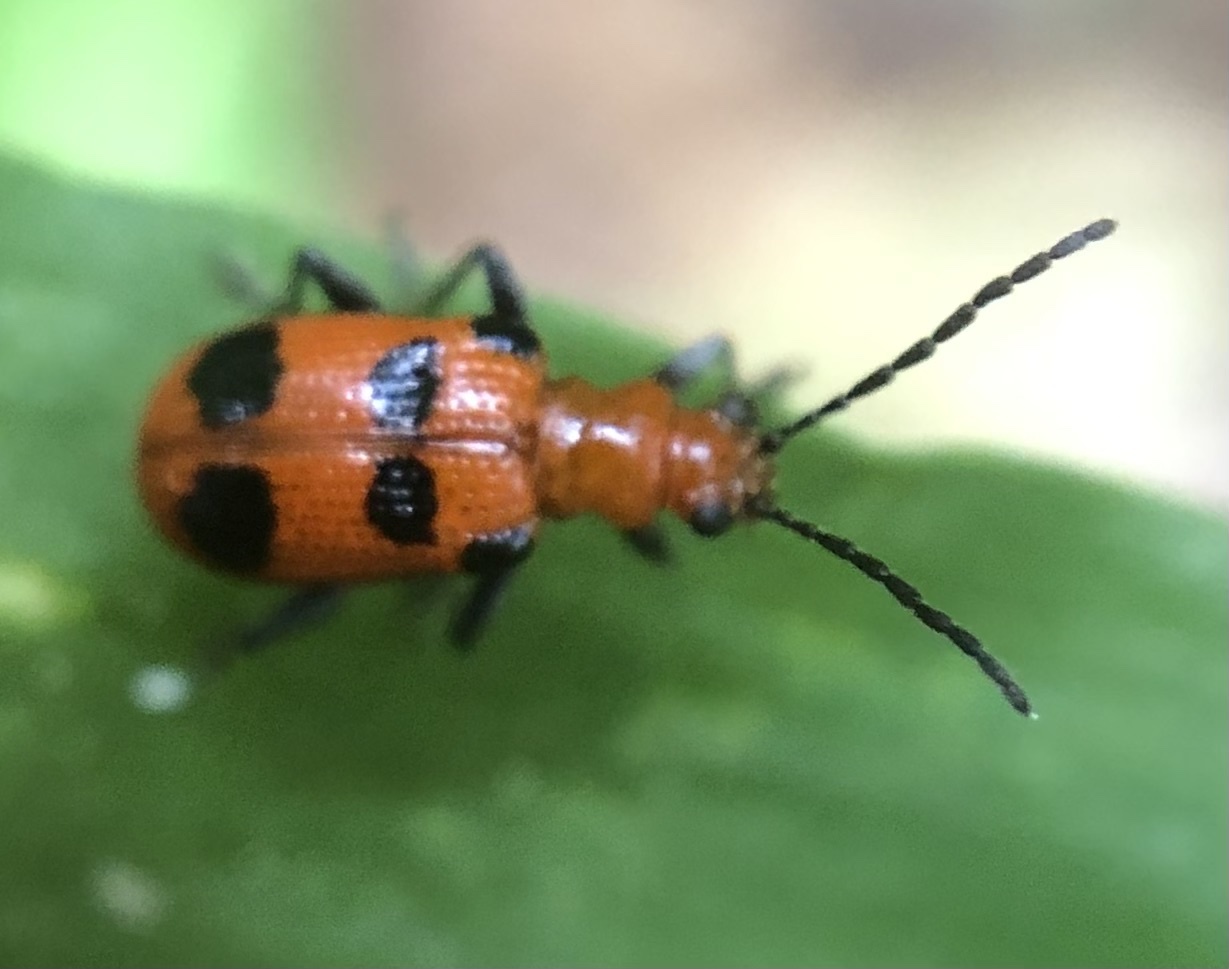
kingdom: Animalia
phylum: Arthropoda
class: Insecta
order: Coleoptera
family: Chrysomelidae
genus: Neolema
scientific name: Neolema sexpunctata
